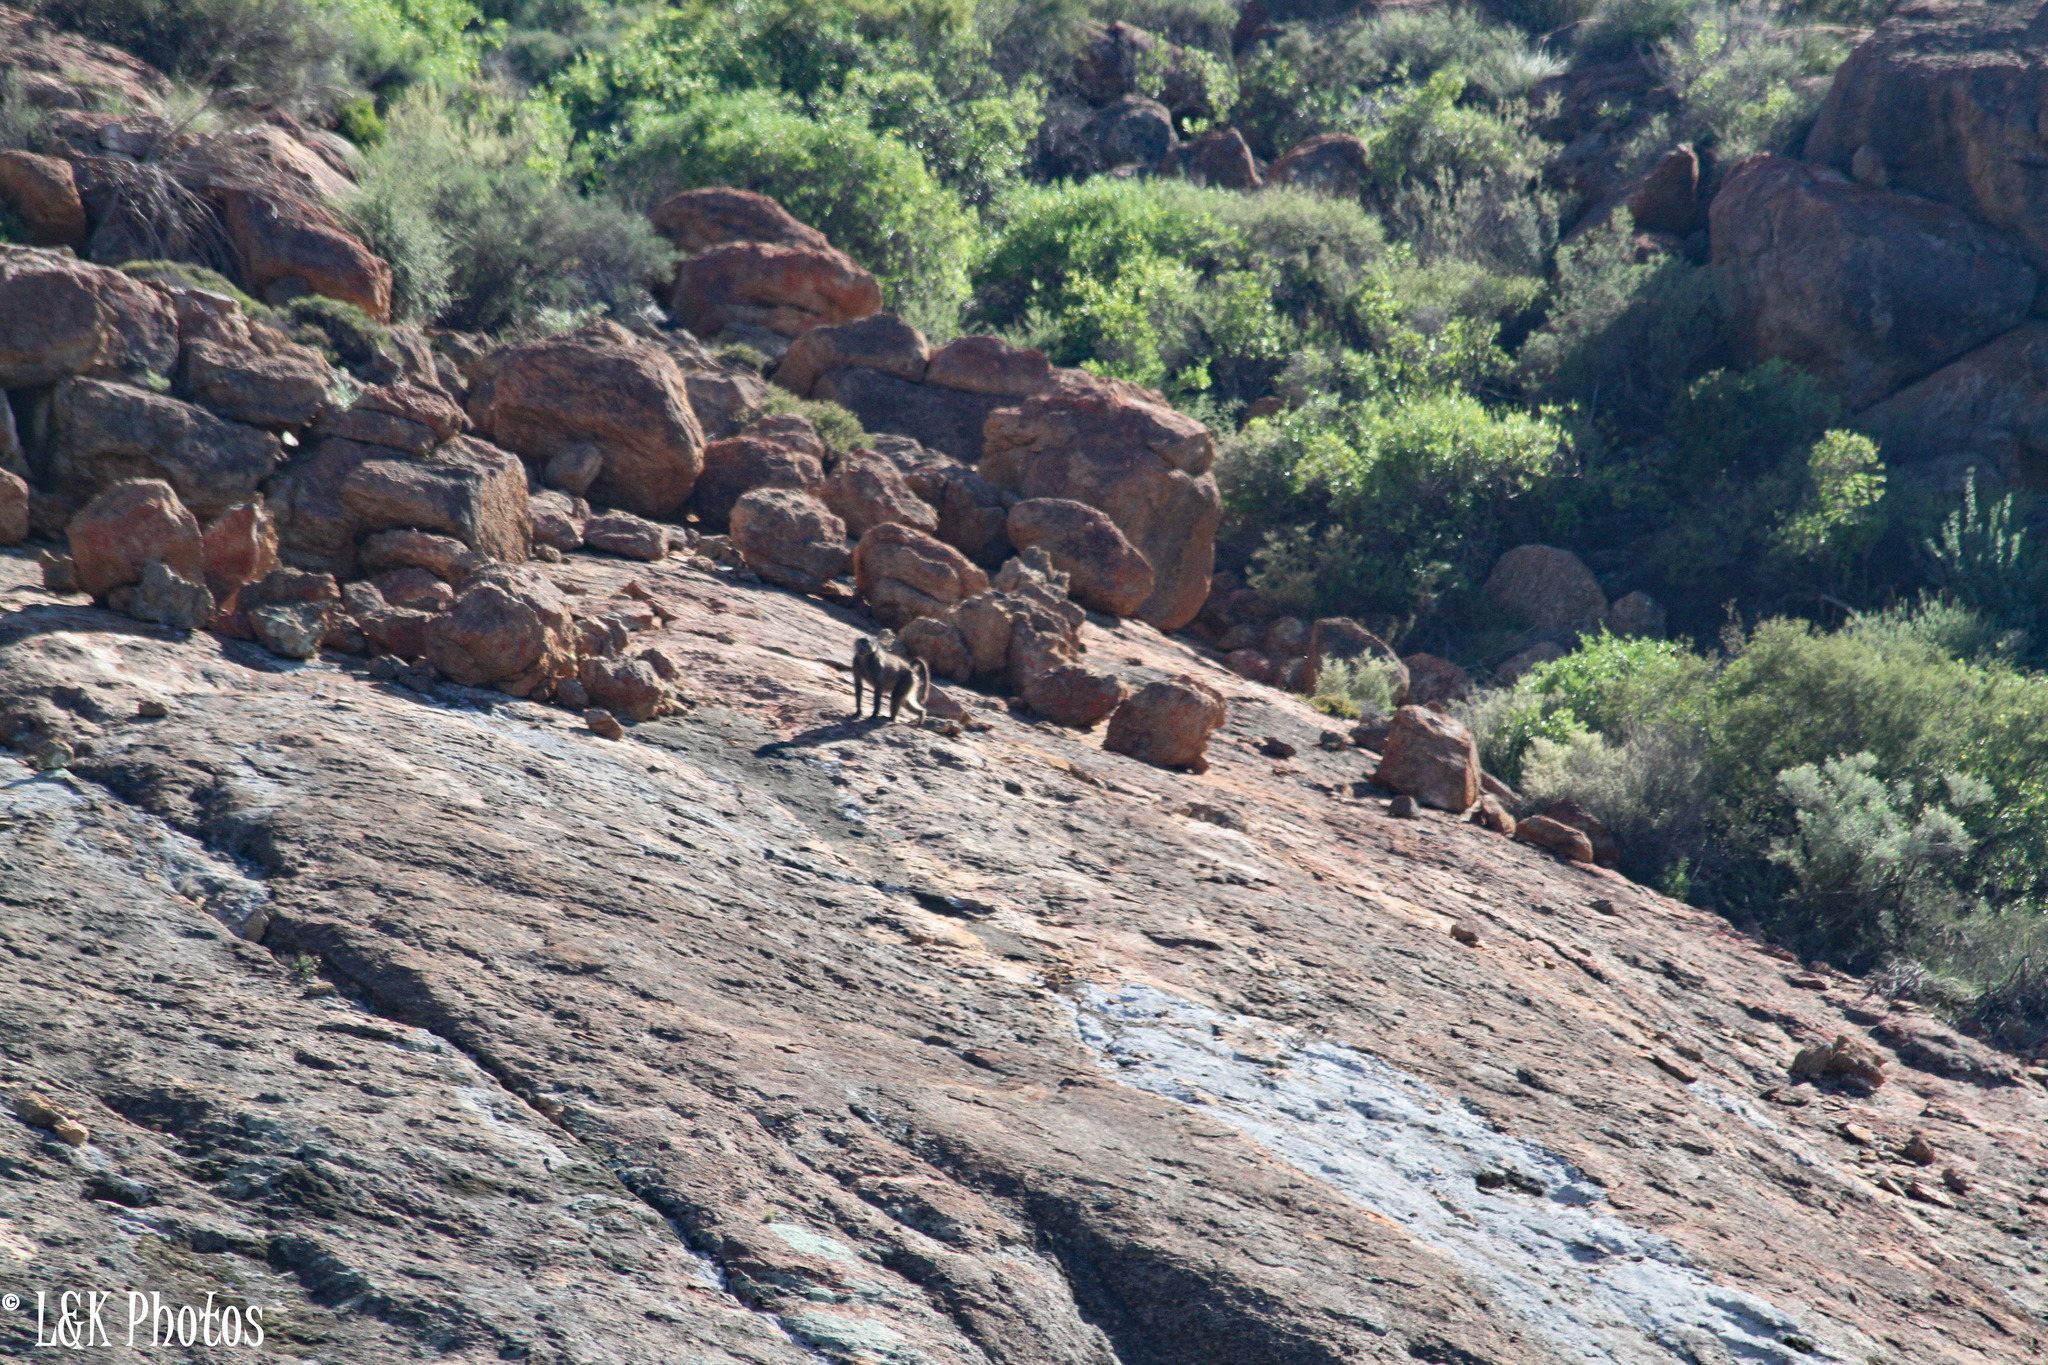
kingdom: Animalia
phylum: Chordata
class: Mammalia
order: Primates
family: Cercopithecidae
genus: Papio
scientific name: Papio ursinus
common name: Chacma baboon
